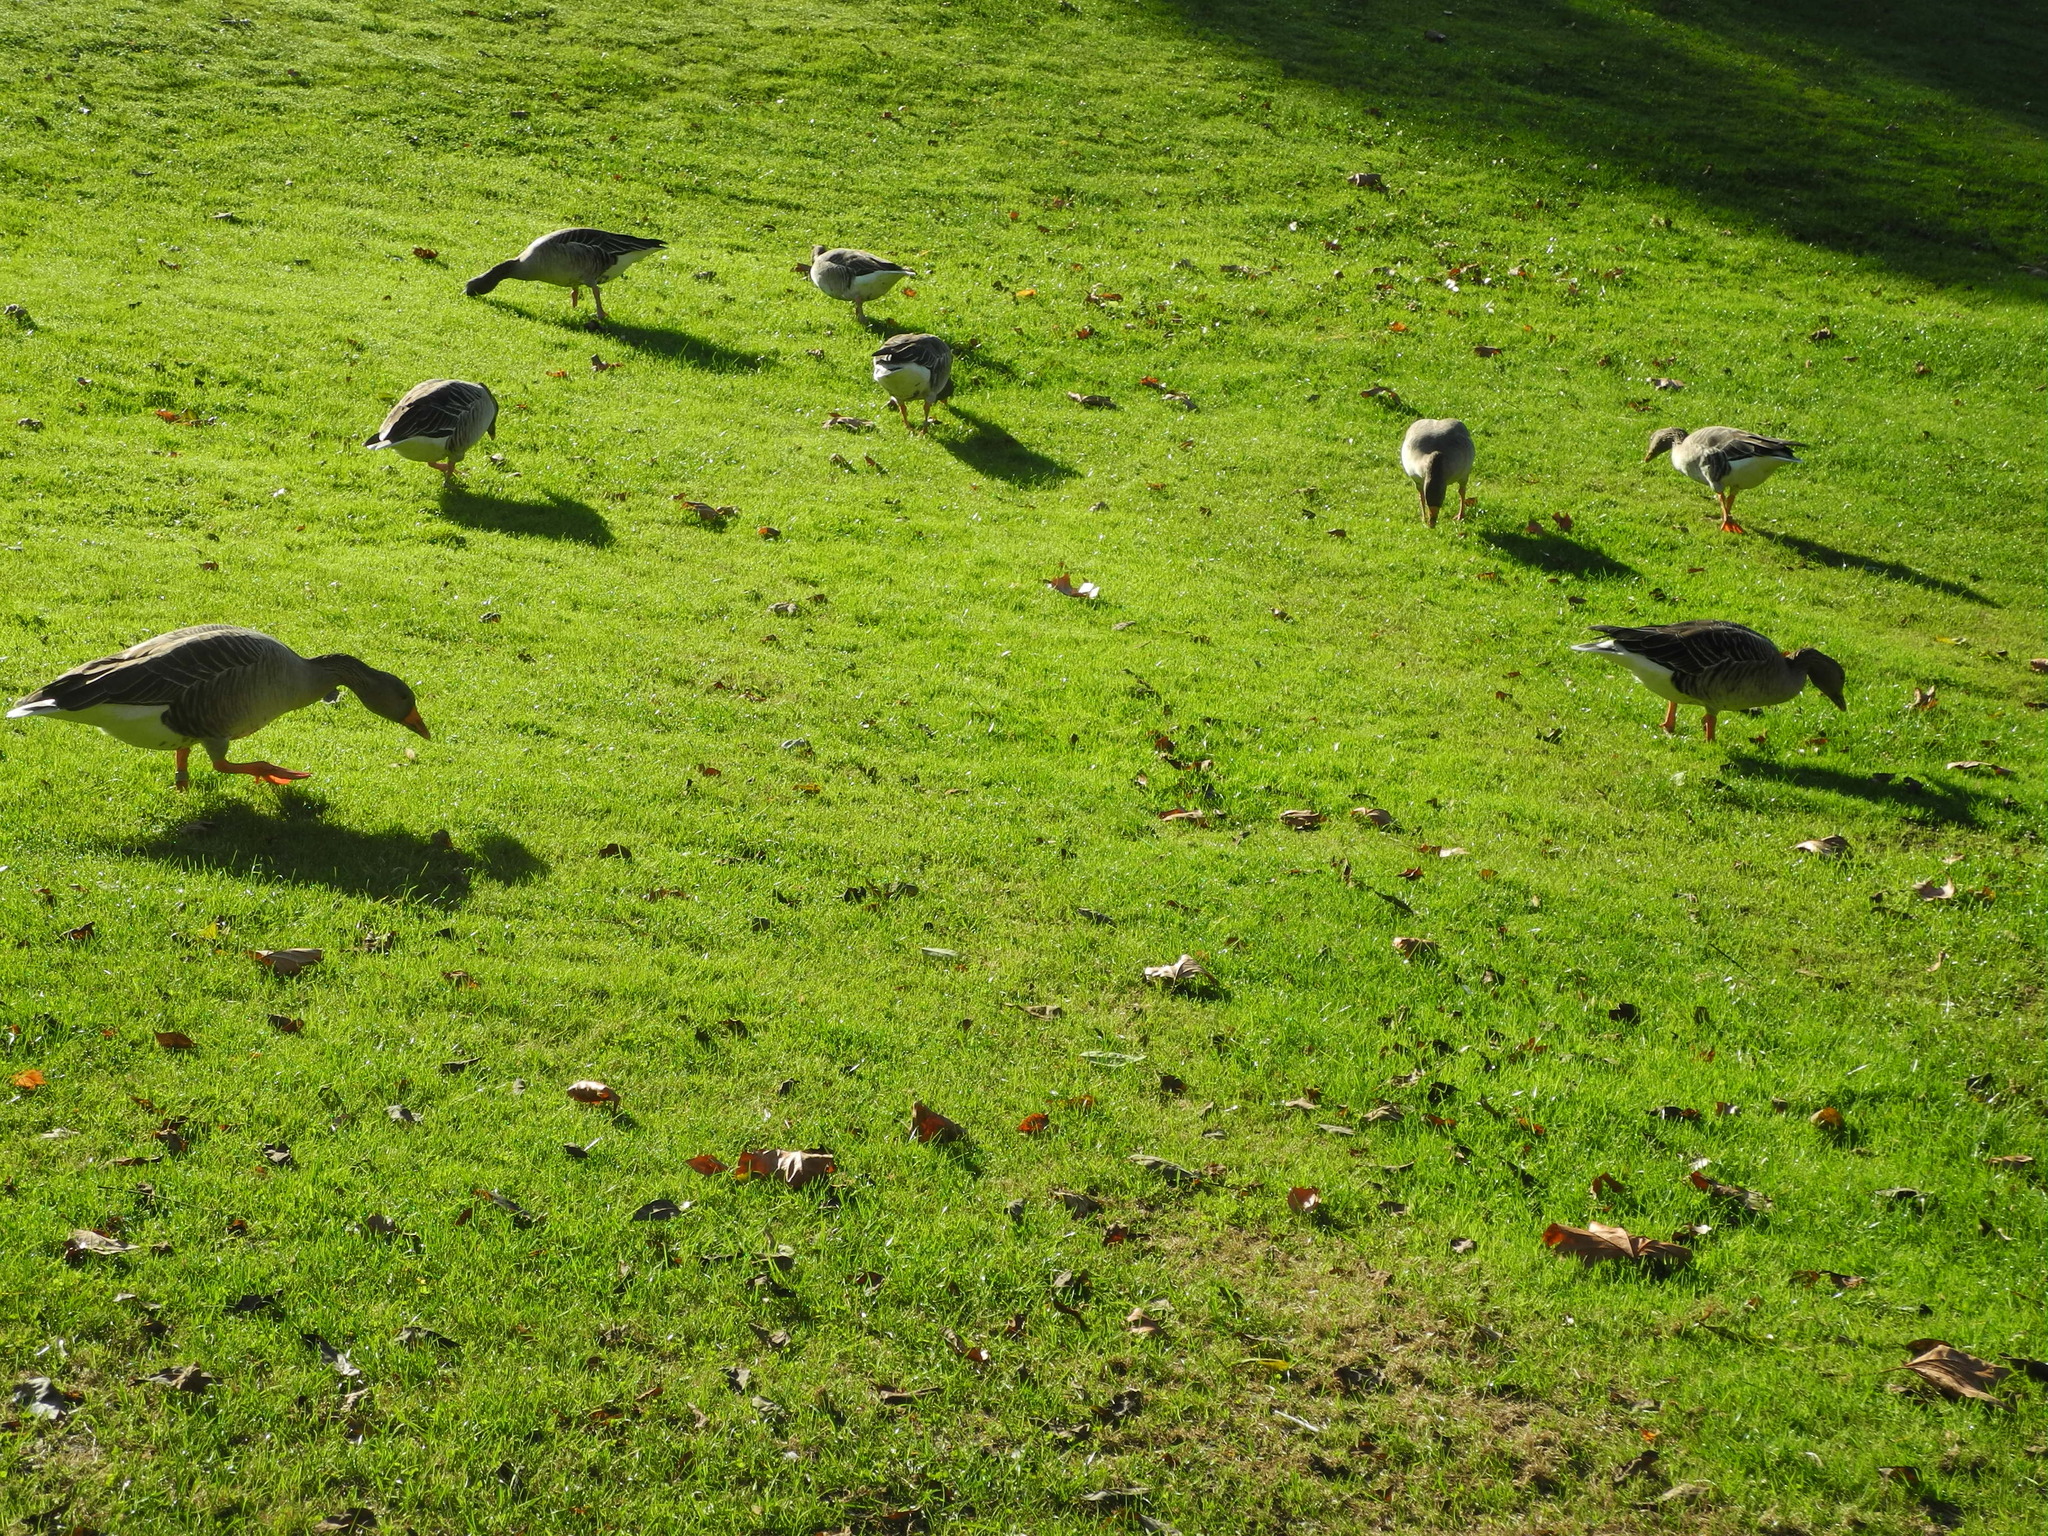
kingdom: Animalia
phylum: Chordata
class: Aves
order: Anseriformes
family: Anatidae
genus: Anser
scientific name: Anser anser
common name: Greylag goose
